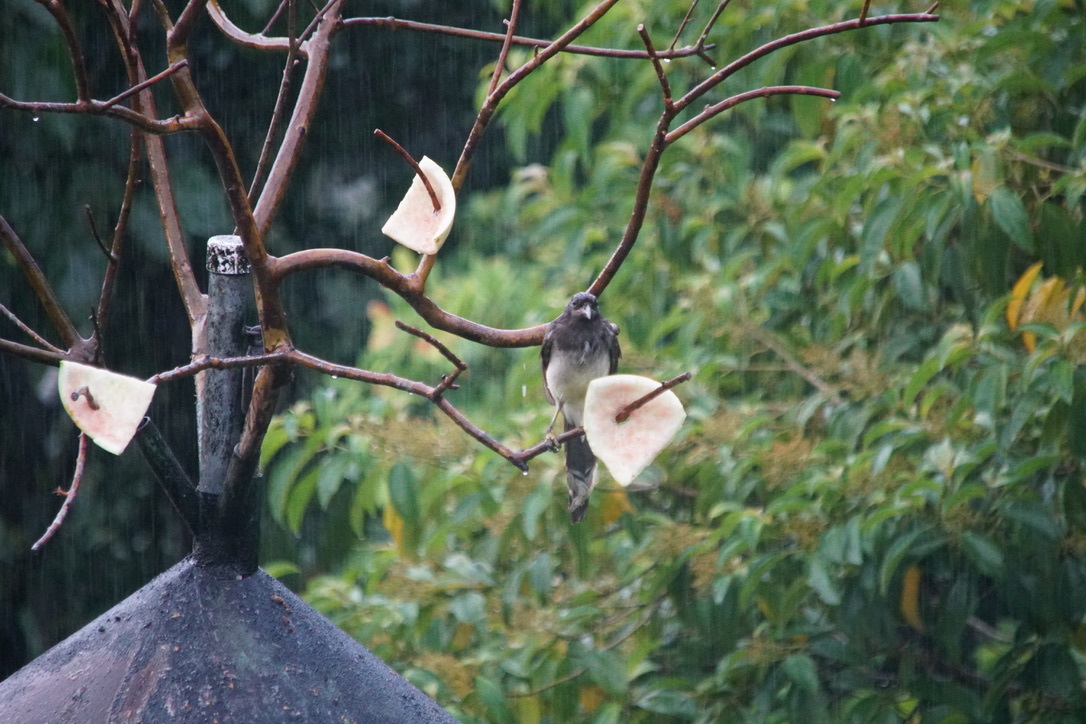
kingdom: Animalia
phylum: Chordata
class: Aves
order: Passeriformes
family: Corvidae
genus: Psilorhinus
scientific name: Psilorhinus morio
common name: Brown jay
